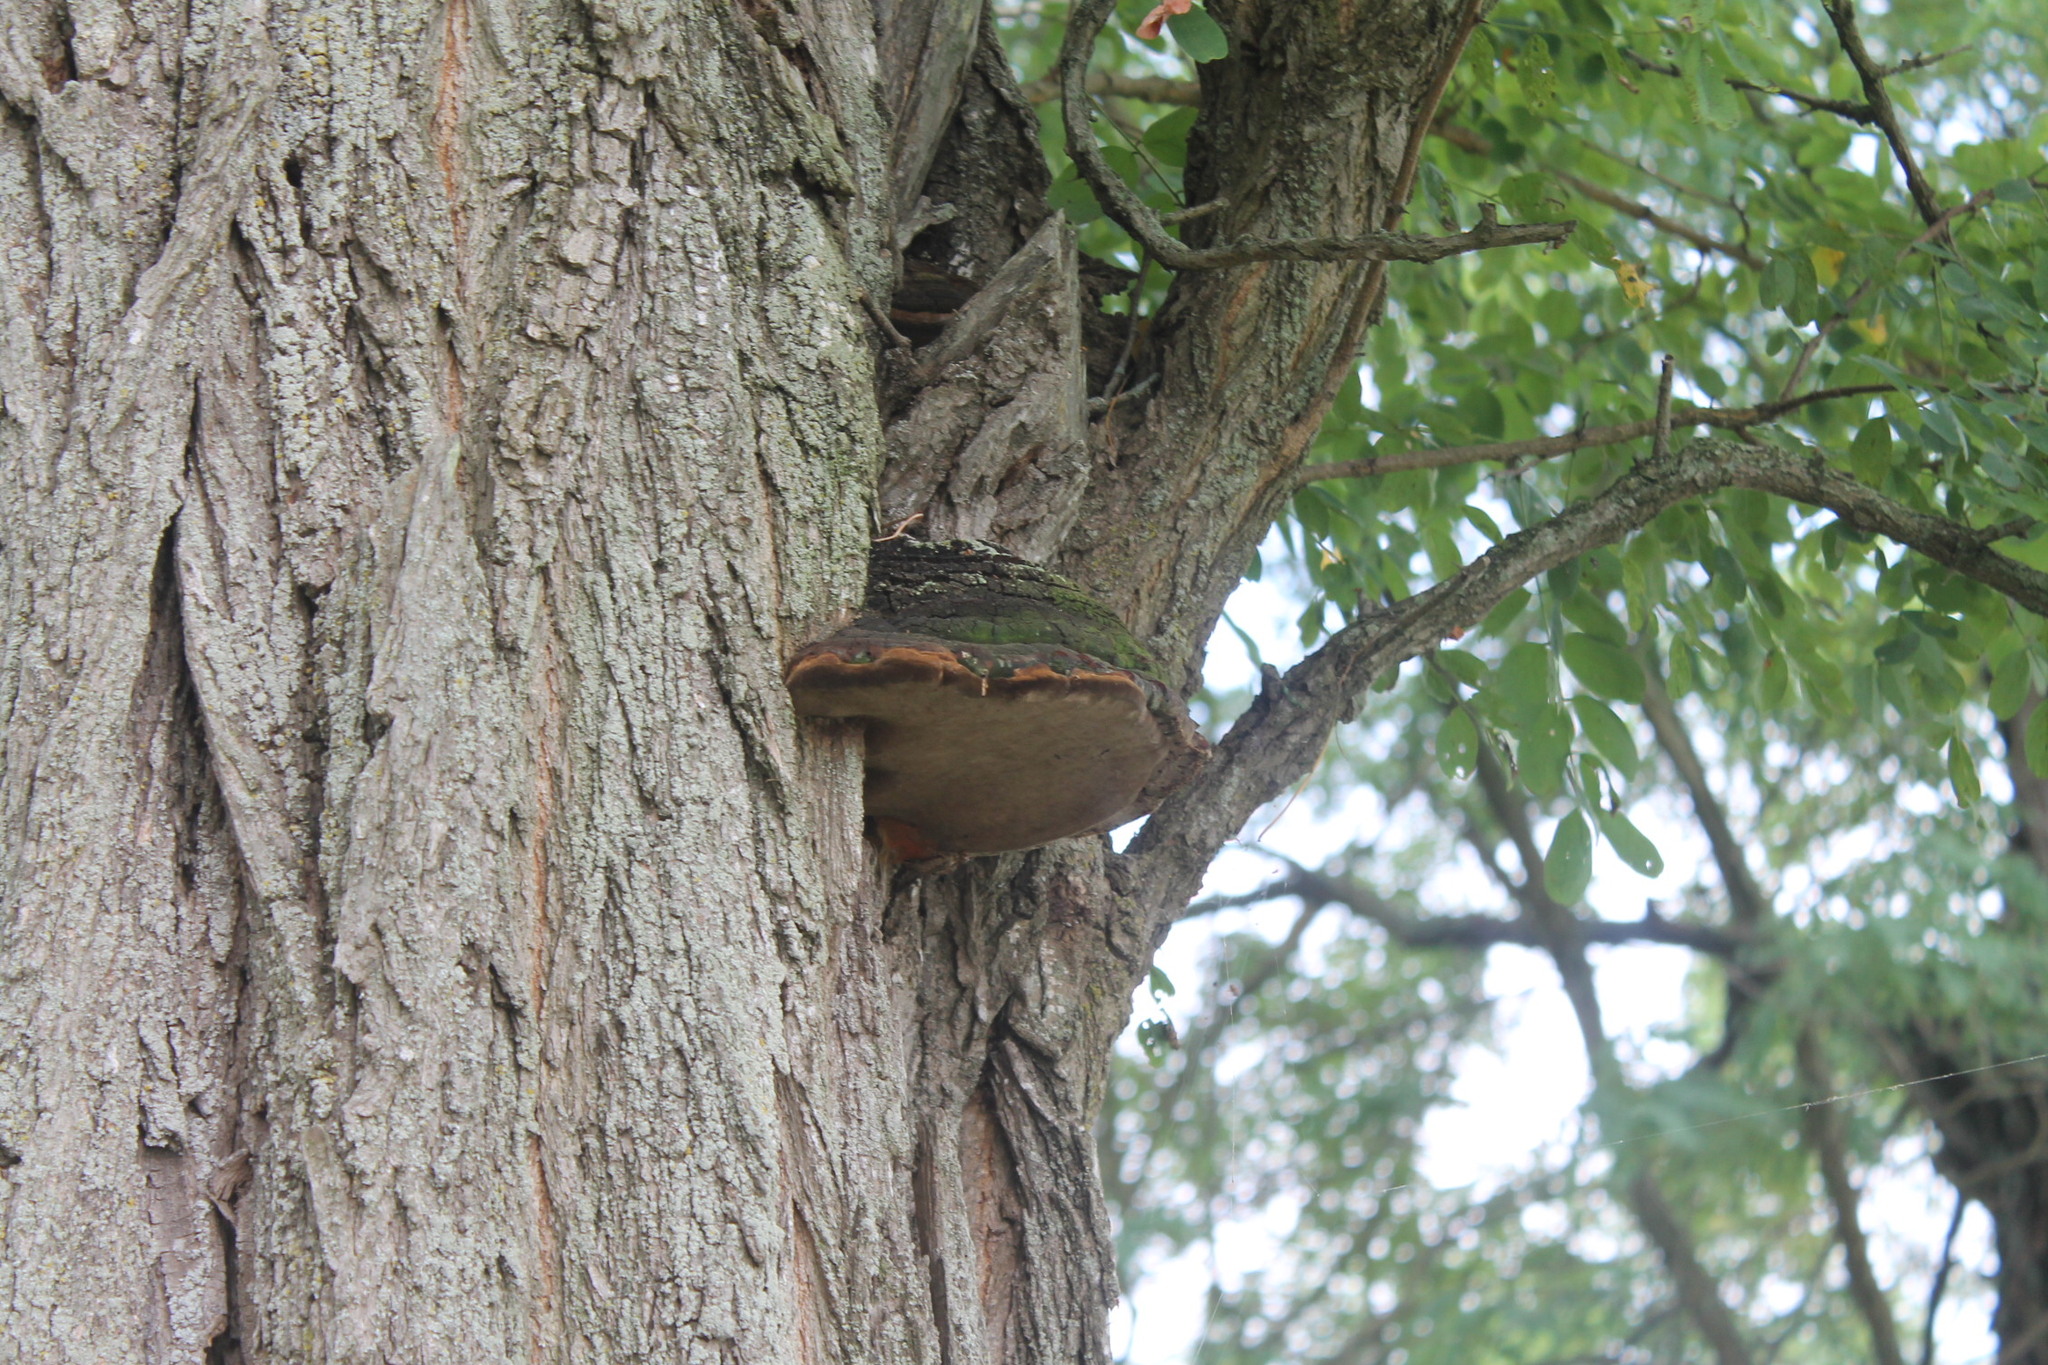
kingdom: Fungi
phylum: Basidiomycota
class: Agaricomycetes
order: Hymenochaetales
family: Hymenochaetaceae
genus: Phellinus
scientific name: Phellinus robiniae
